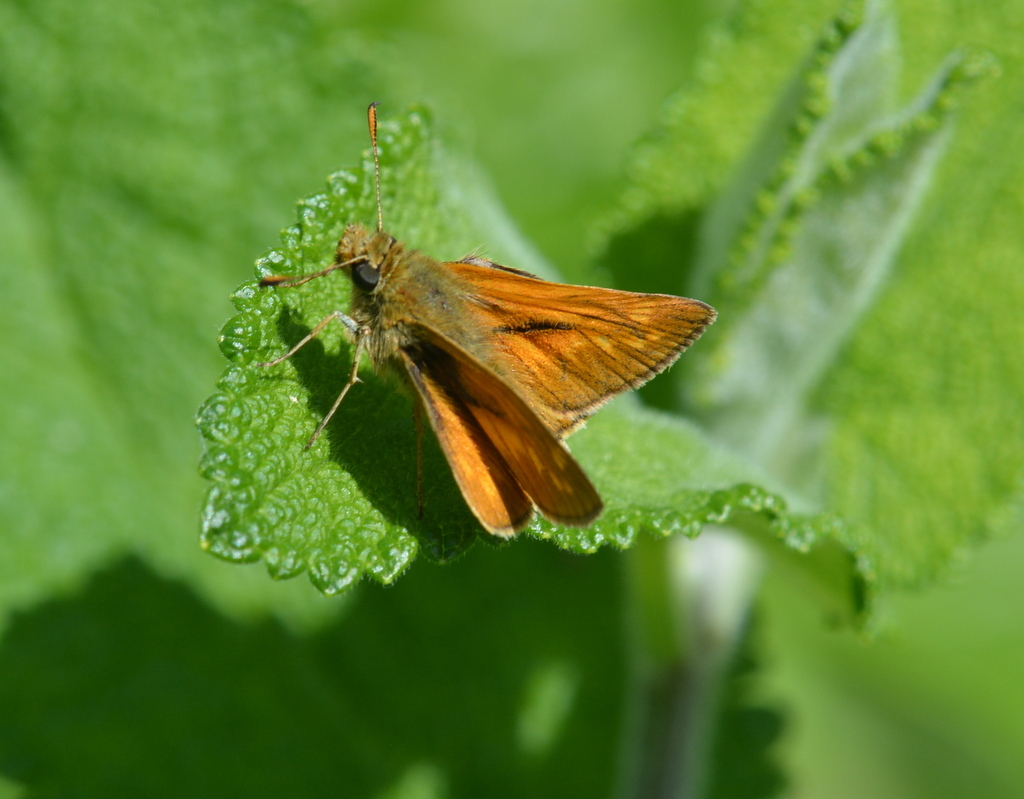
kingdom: Animalia
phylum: Arthropoda
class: Insecta
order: Lepidoptera
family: Hesperiidae
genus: Ochlodes
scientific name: Ochlodes venata
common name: Large skipper
